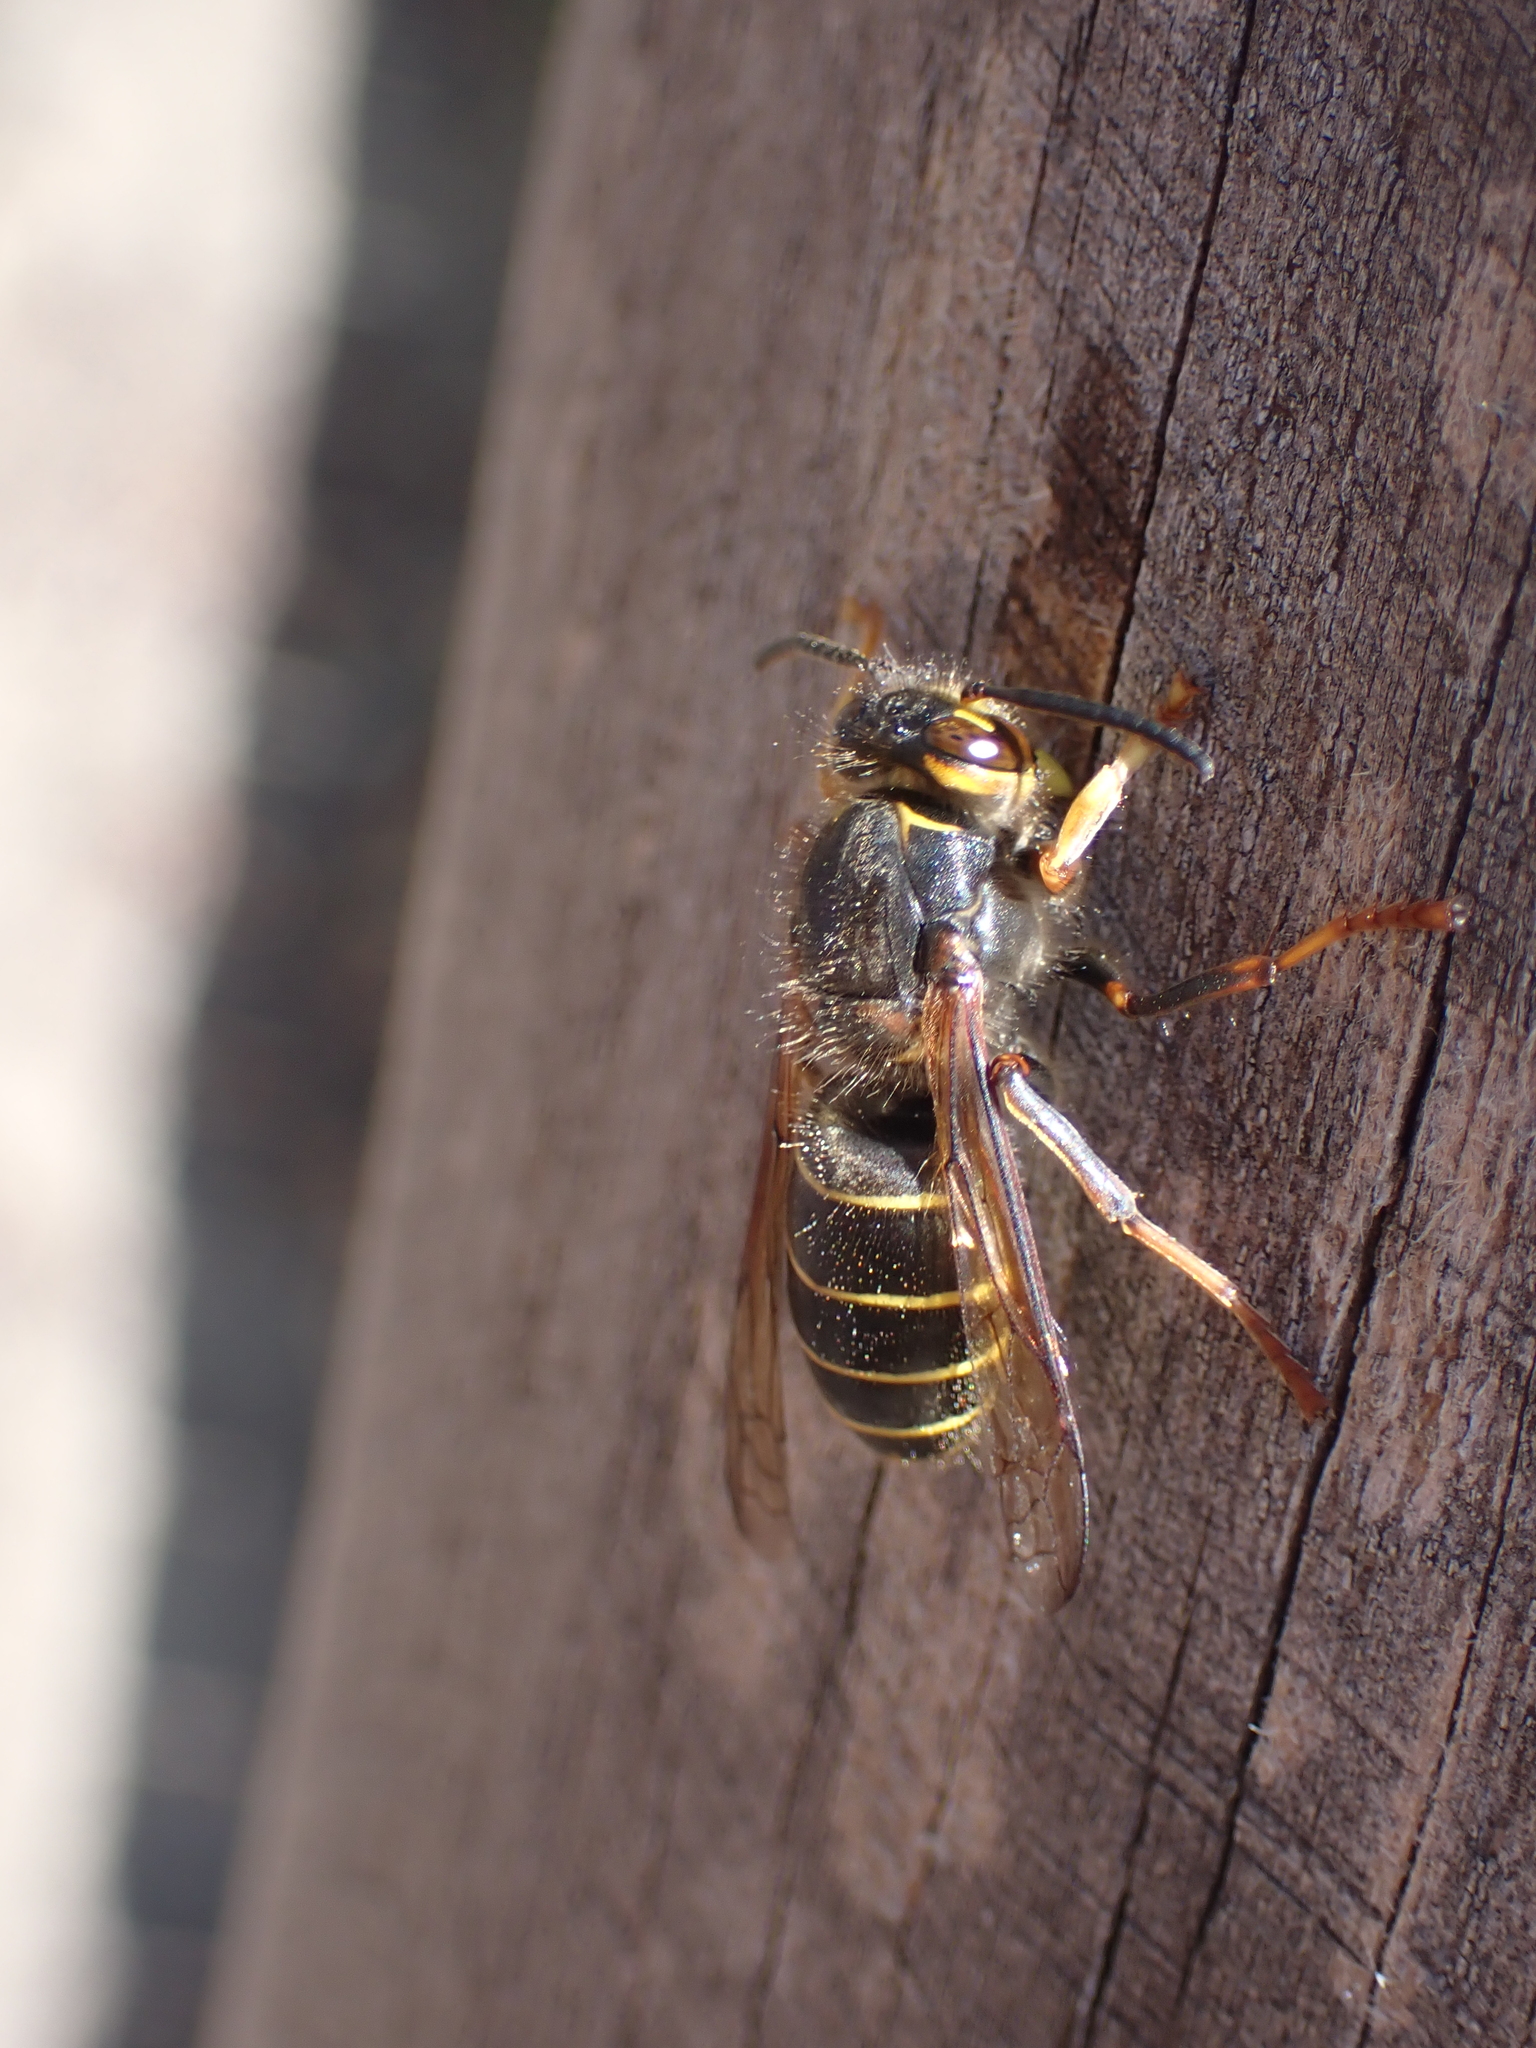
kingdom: Animalia
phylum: Arthropoda
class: Insecta
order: Hymenoptera
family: Vespidae
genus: Dolichovespula
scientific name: Dolichovespula media
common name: Median wasp
